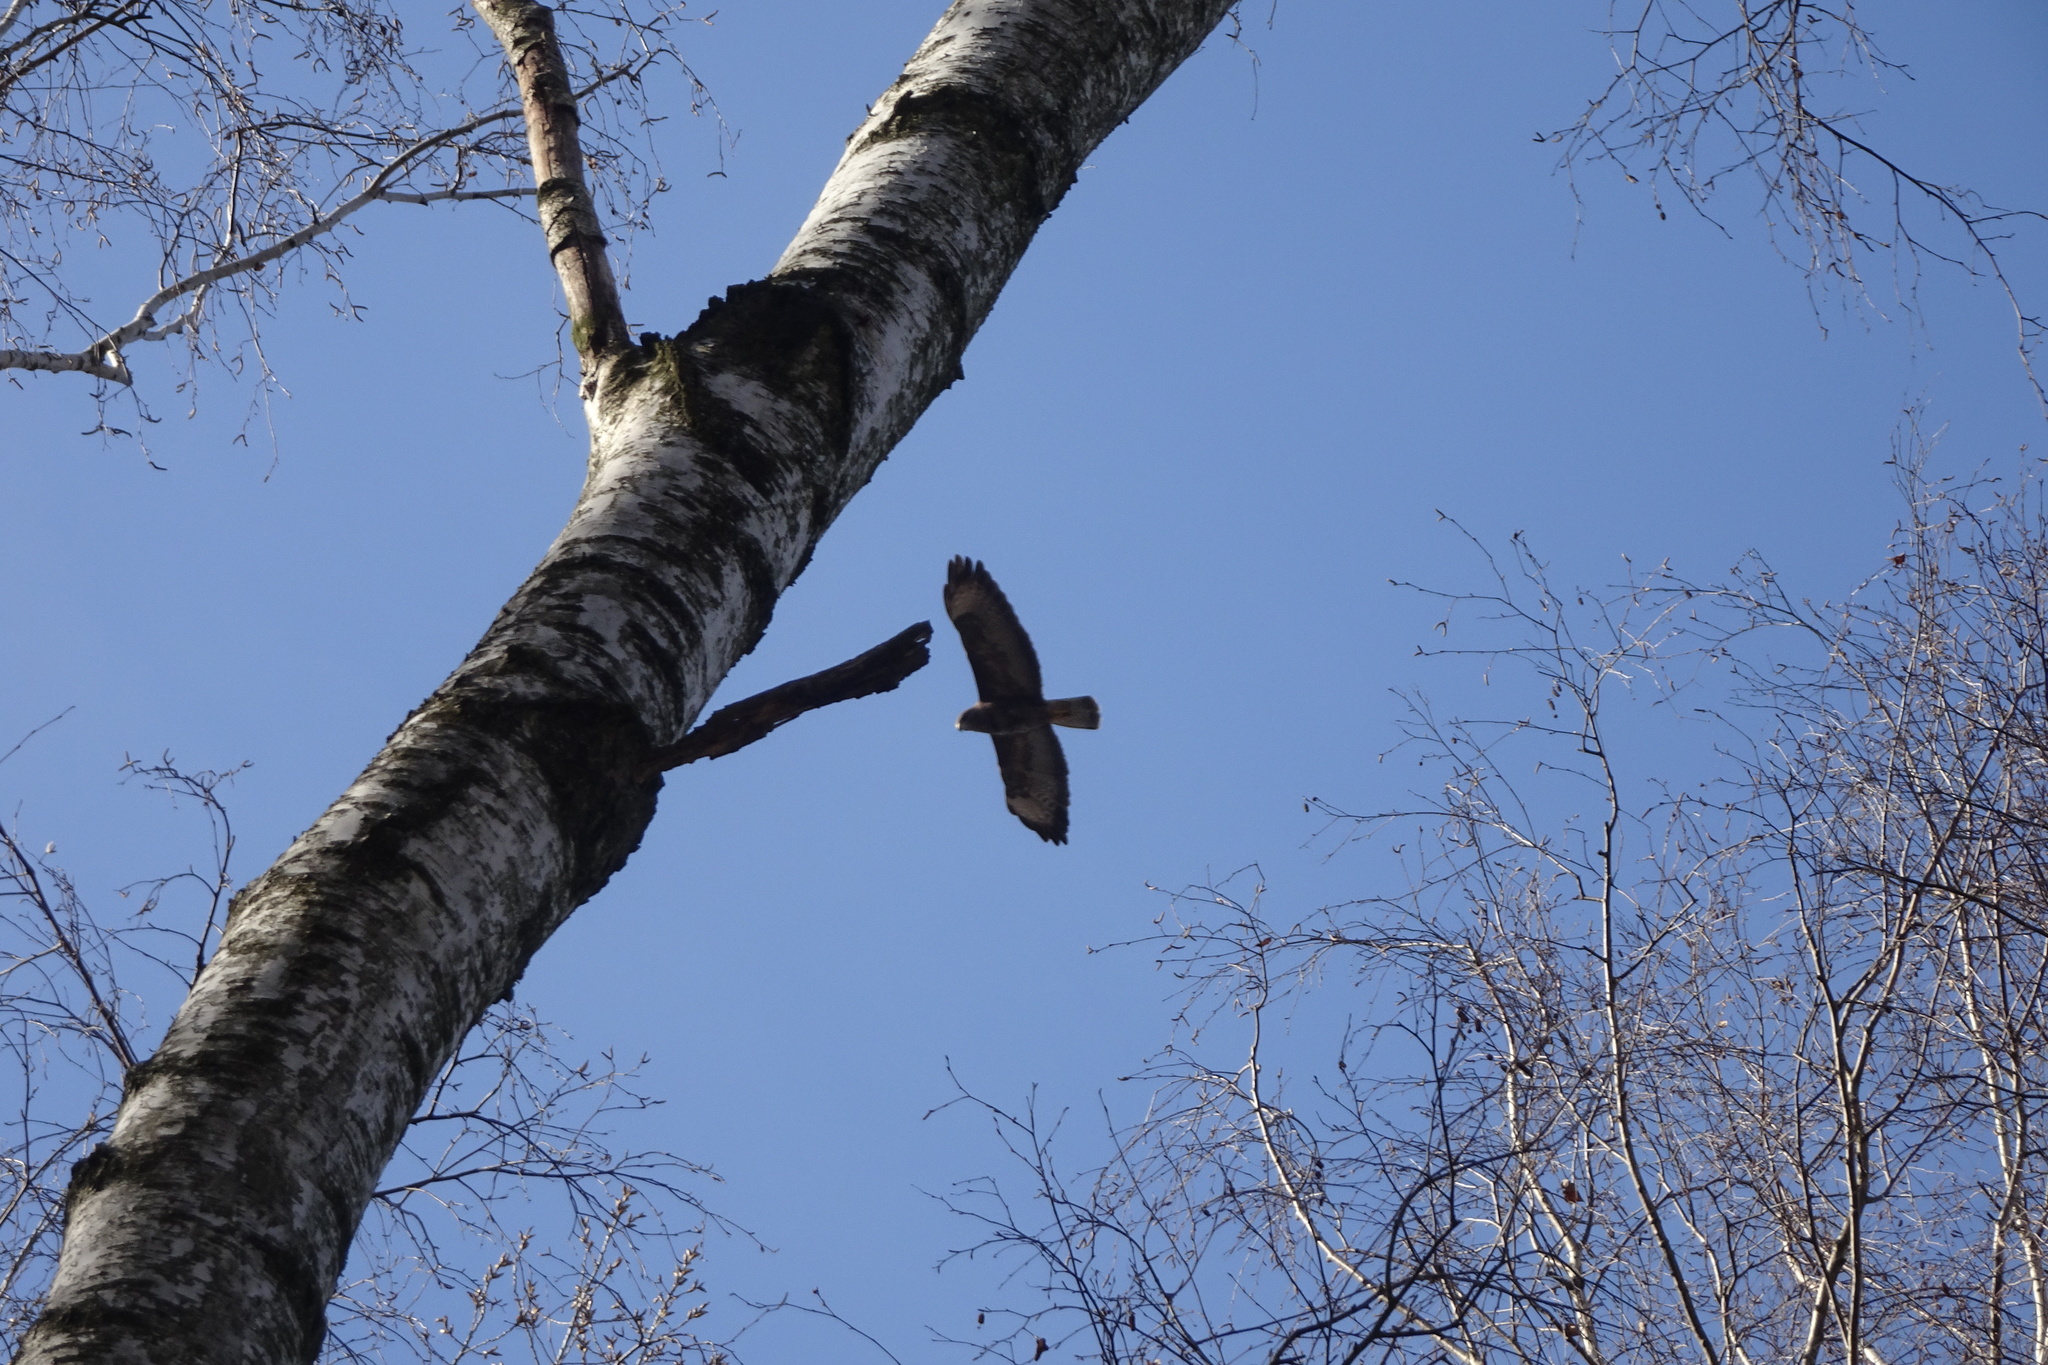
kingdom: Animalia
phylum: Chordata
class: Aves
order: Accipitriformes
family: Accipitridae
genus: Buteo
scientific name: Buteo buteo
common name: Common buzzard
